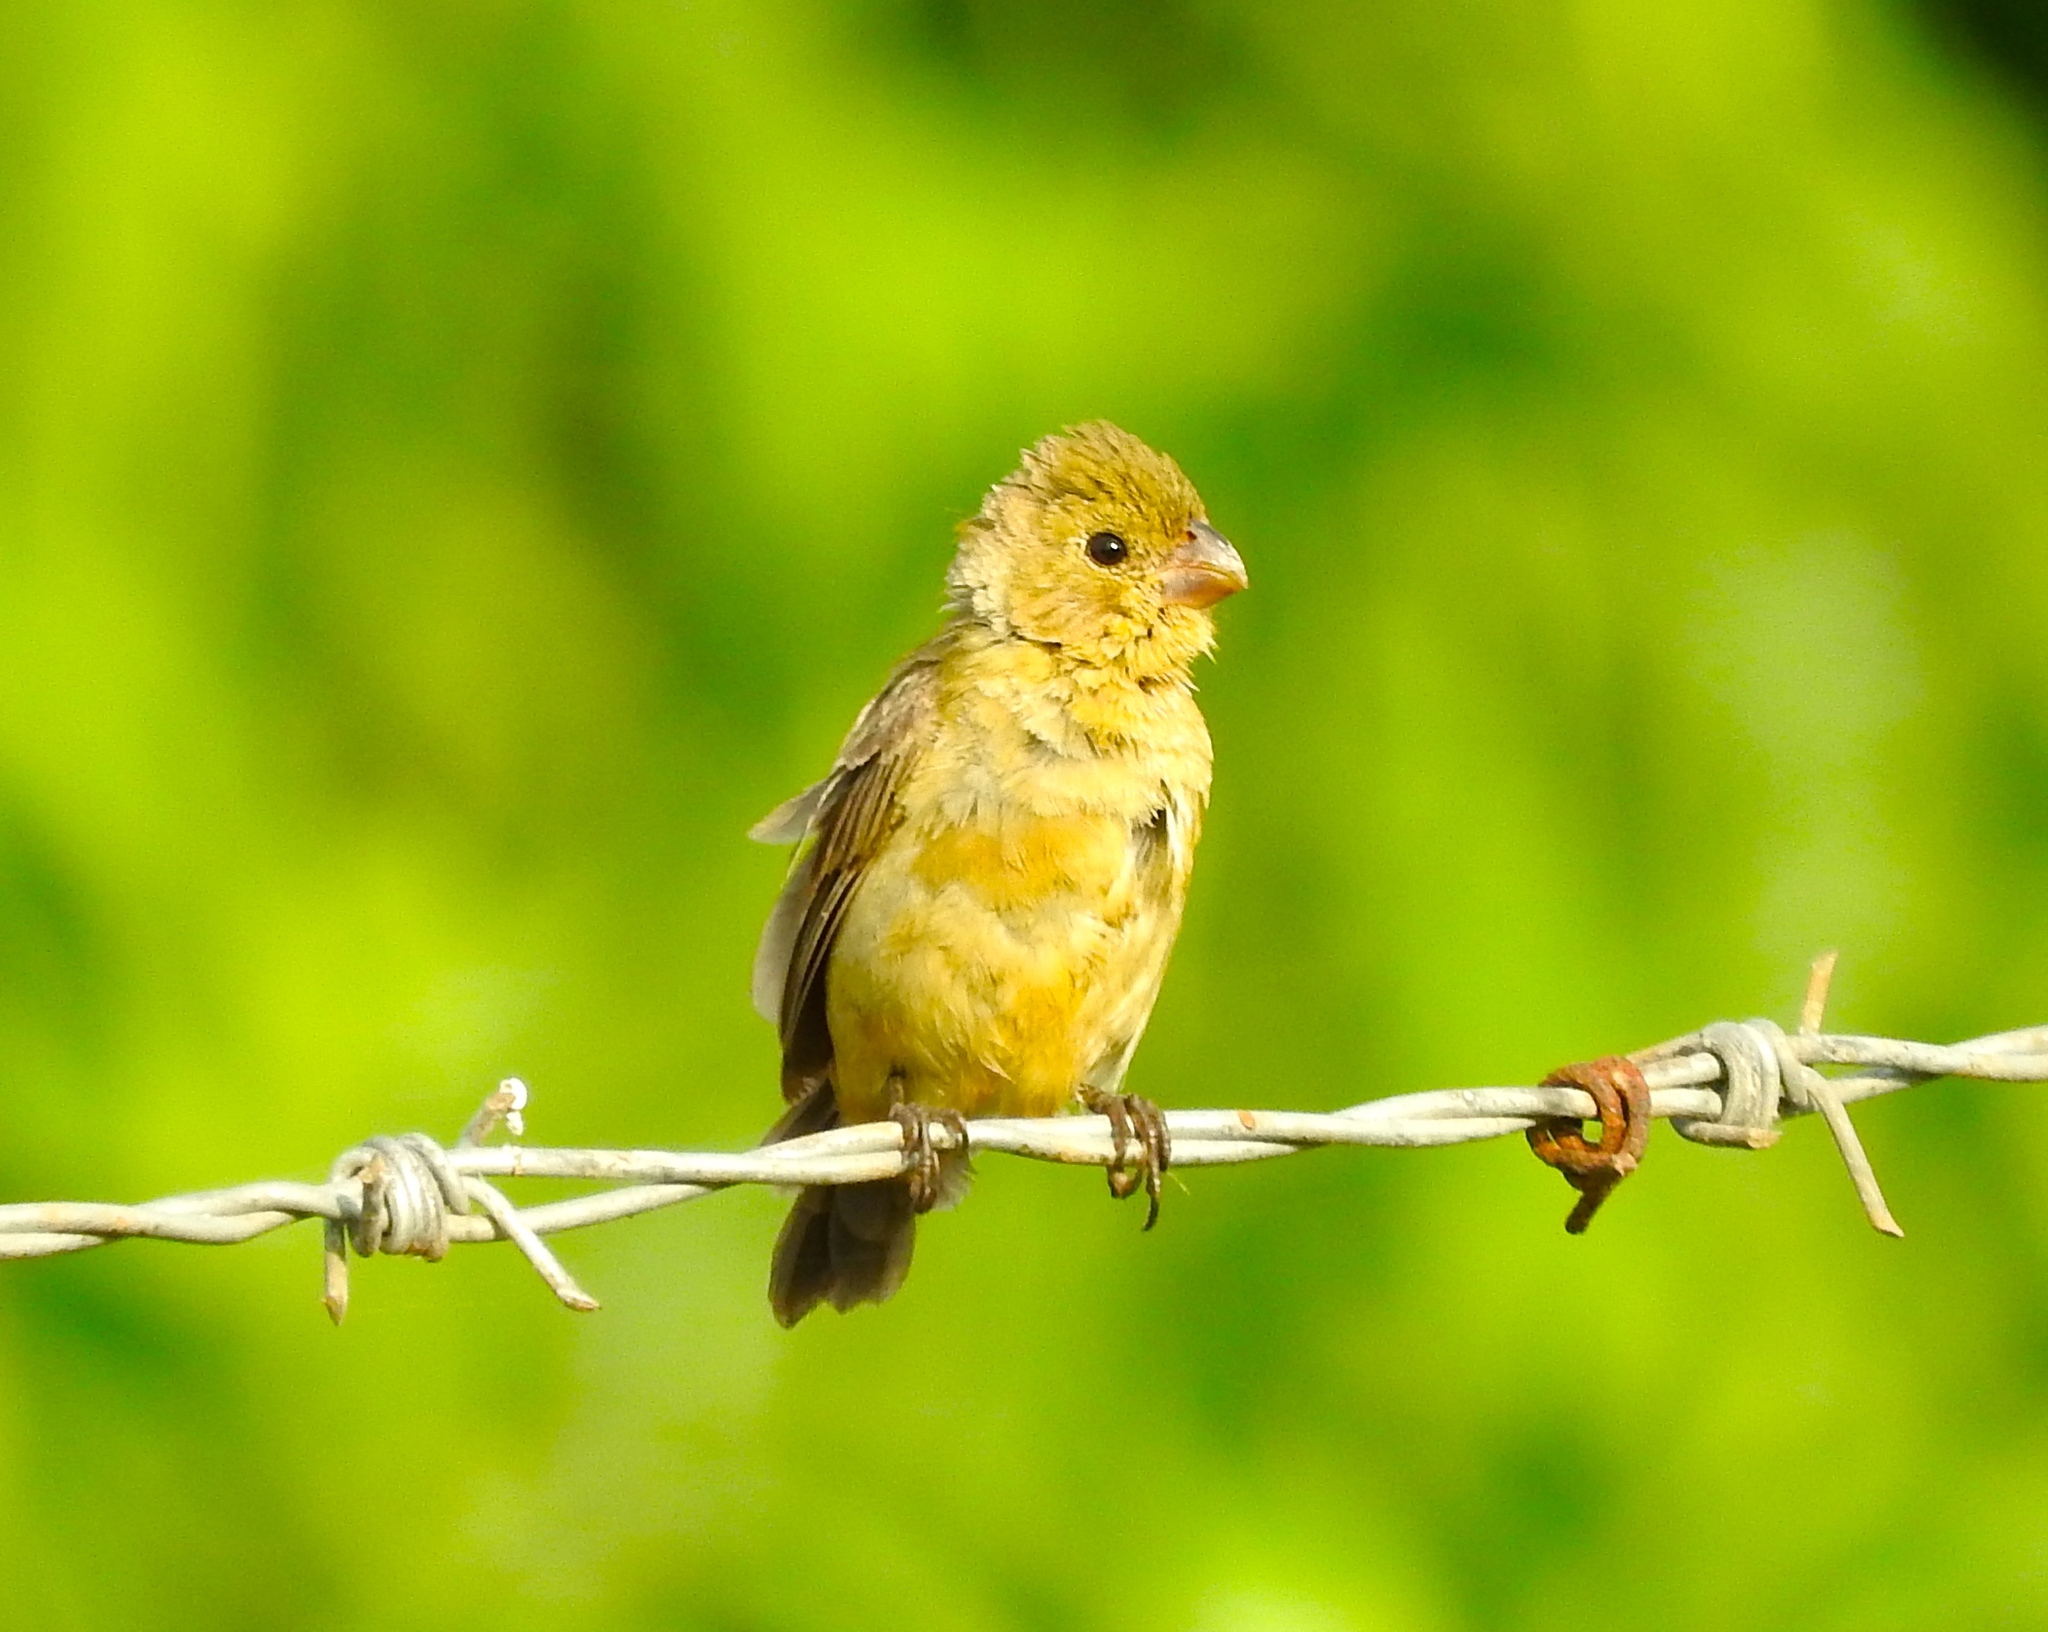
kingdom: Animalia
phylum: Chordata
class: Aves
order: Passeriformes
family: Thraupidae
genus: Sporophila
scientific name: Sporophila torqueola
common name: White-collared seedeater
